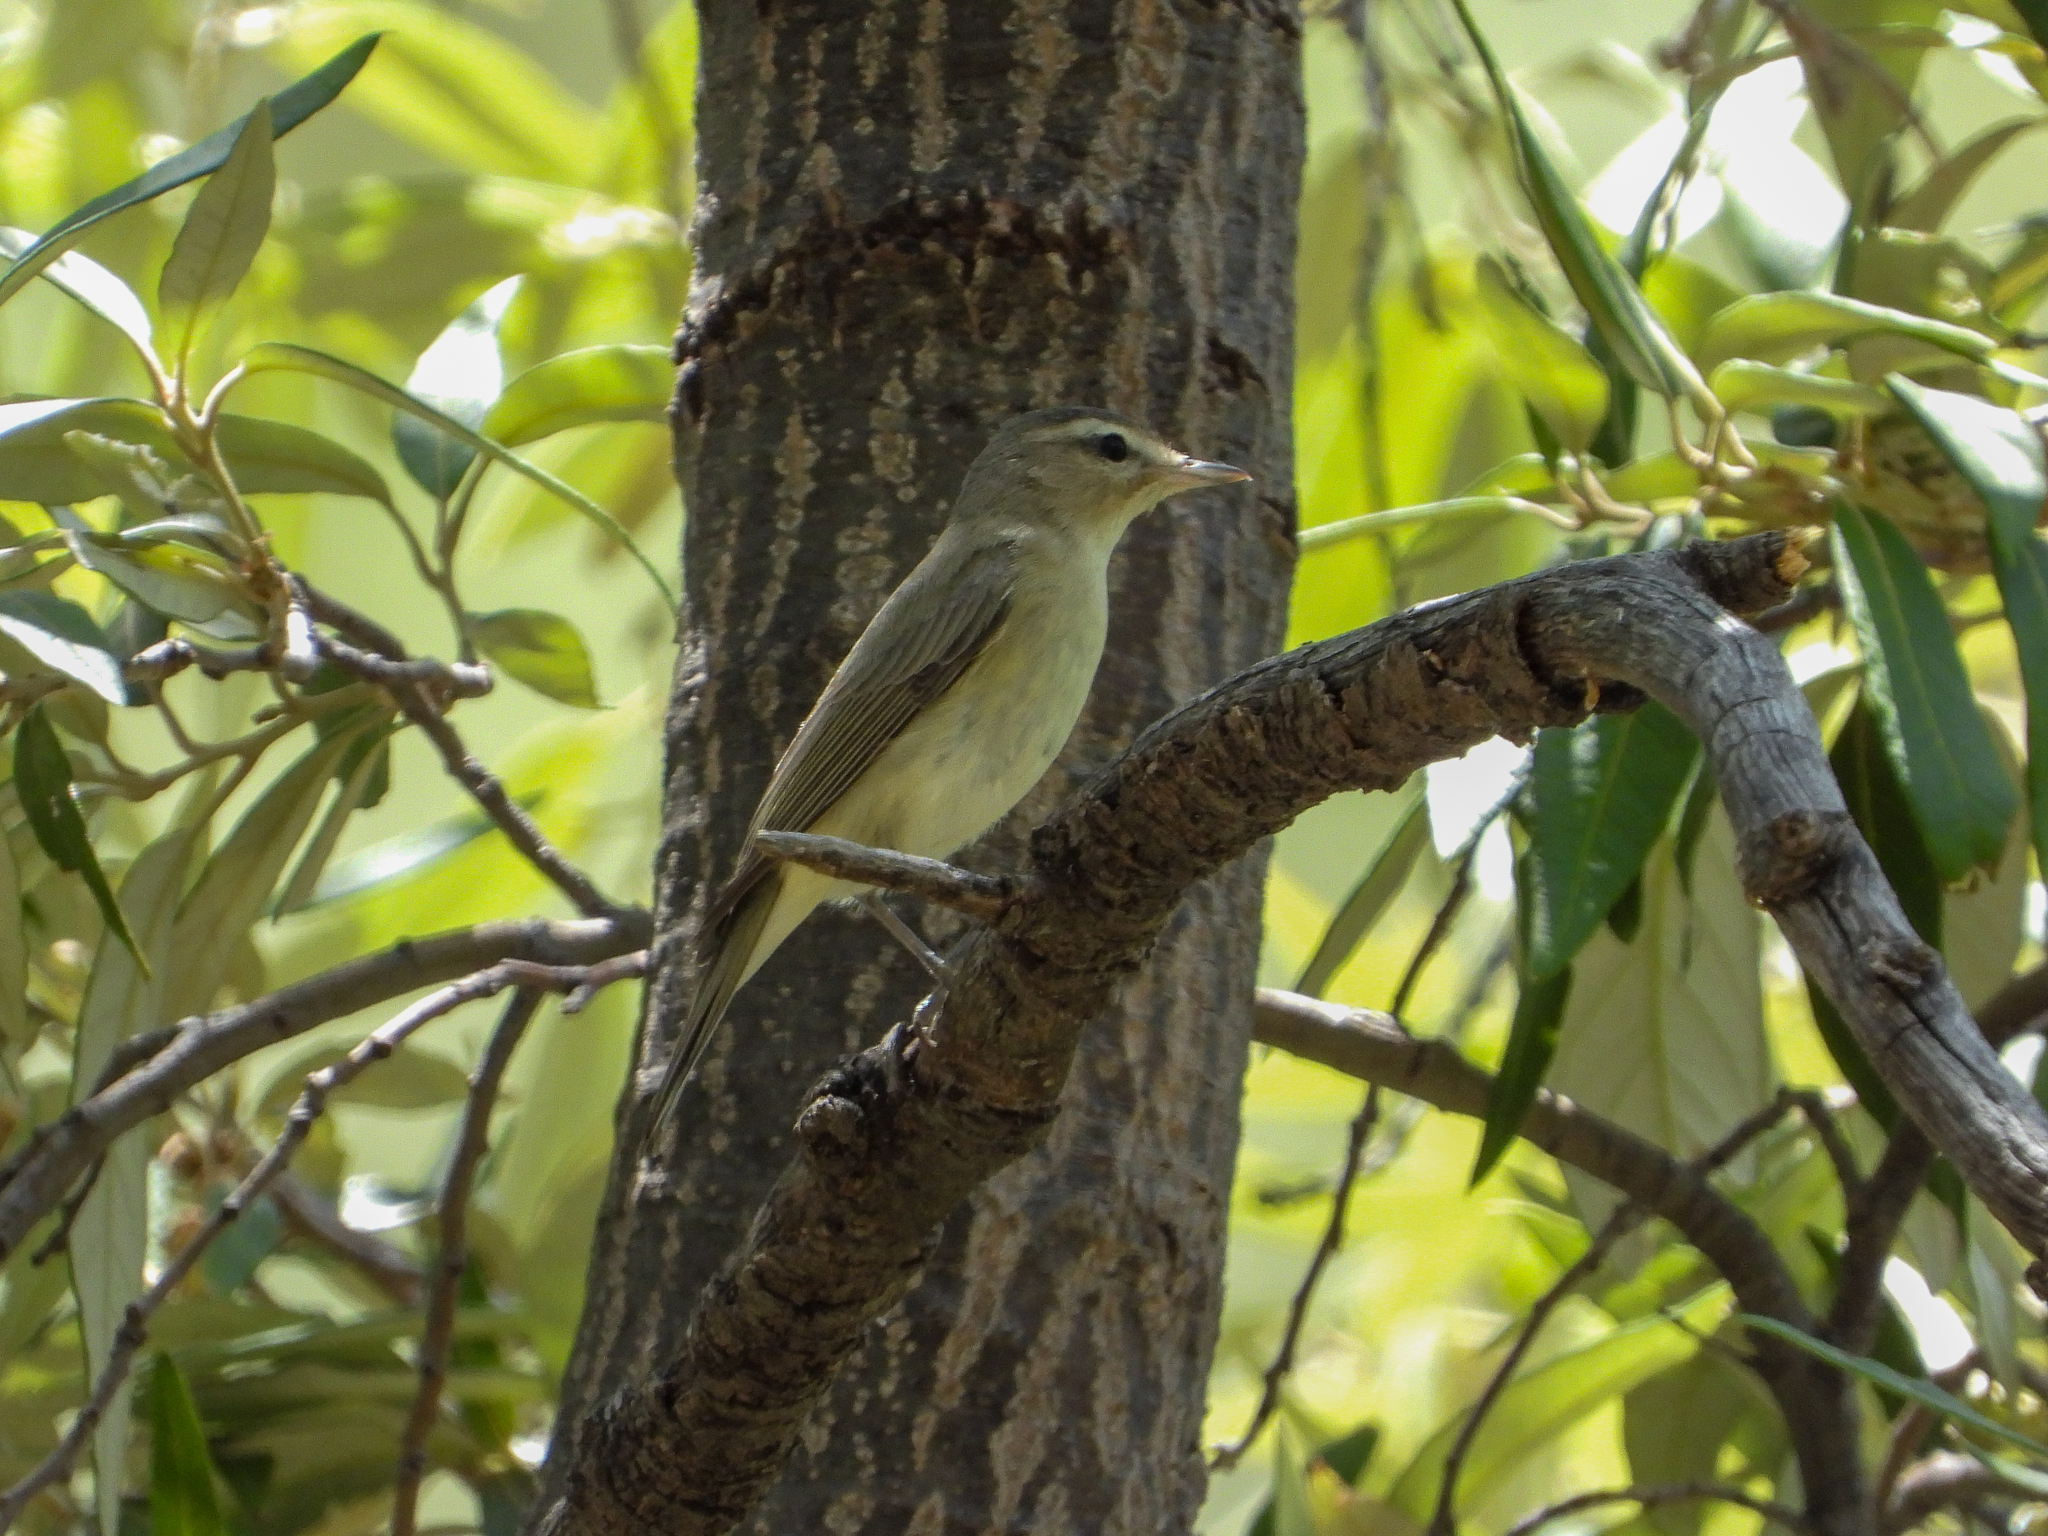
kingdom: Animalia
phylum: Chordata
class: Aves
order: Passeriformes
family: Vireonidae
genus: Vireo
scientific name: Vireo gilvus
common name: Warbling vireo
